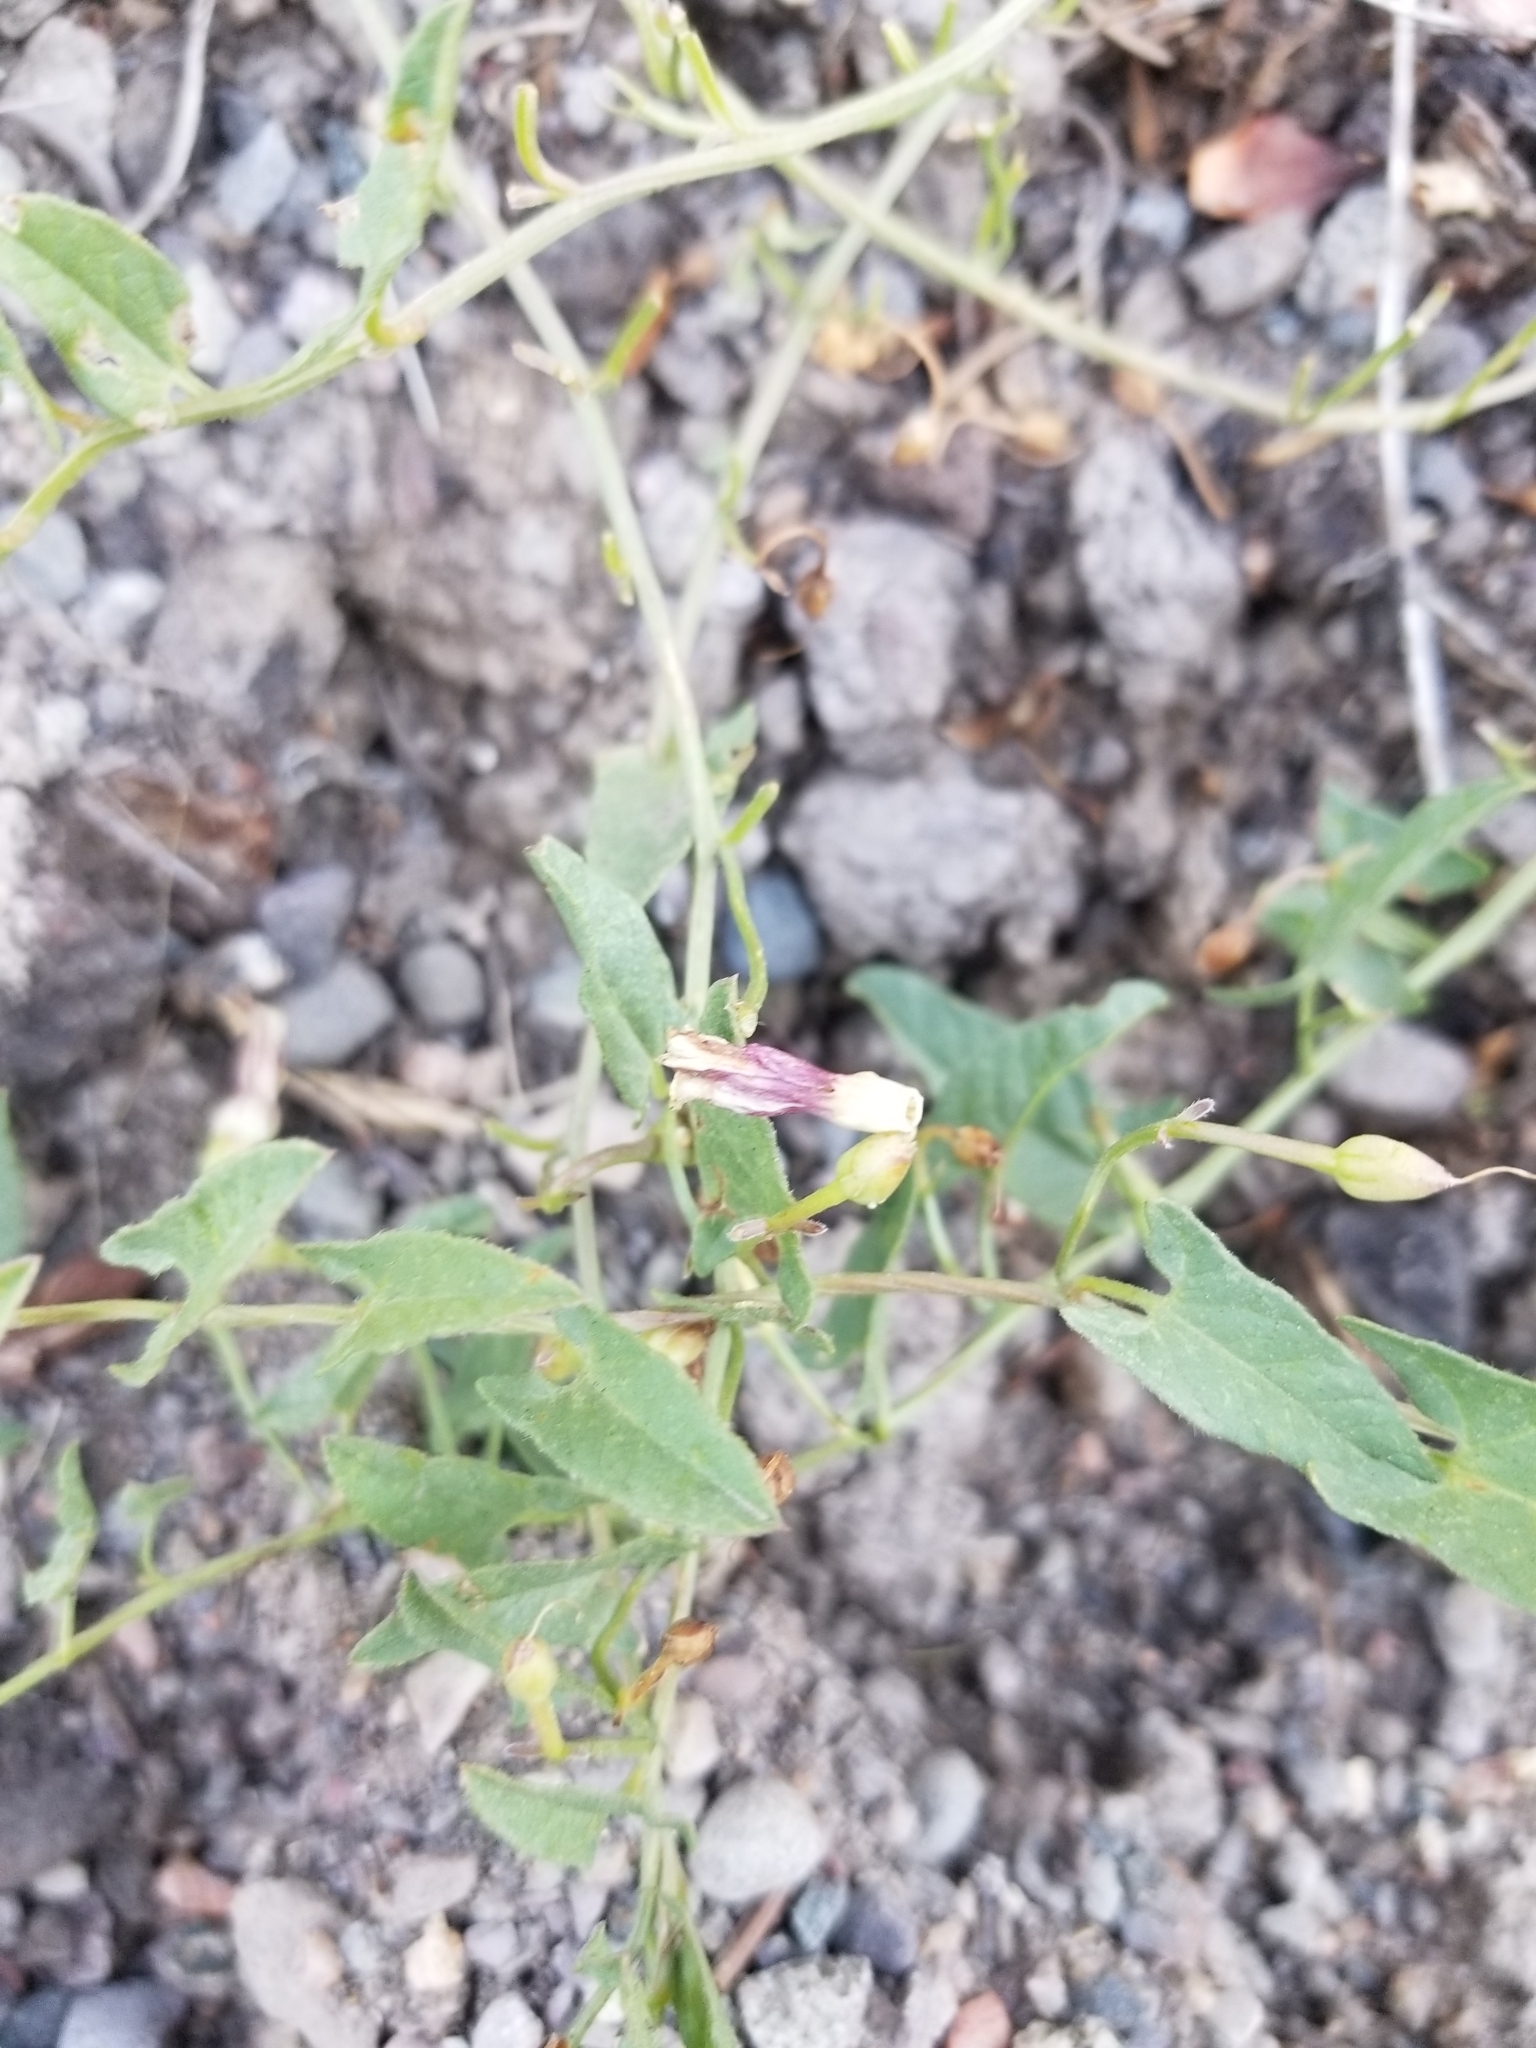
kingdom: Plantae
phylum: Tracheophyta
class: Magnoliopsida
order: Solanales
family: Convolvulaceae
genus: Convolvulus
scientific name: Convolvulus arvensis
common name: Field bindweed
